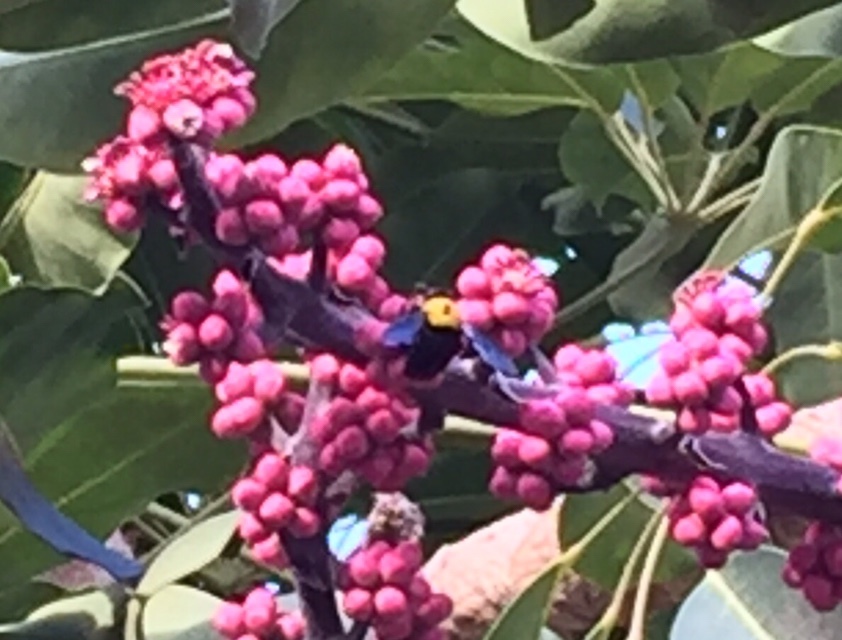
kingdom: Animalia
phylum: Arthropoda
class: Insecta
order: Hymenoptera
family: Apidae
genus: Xylocopa
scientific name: Xylocopa pubescens
